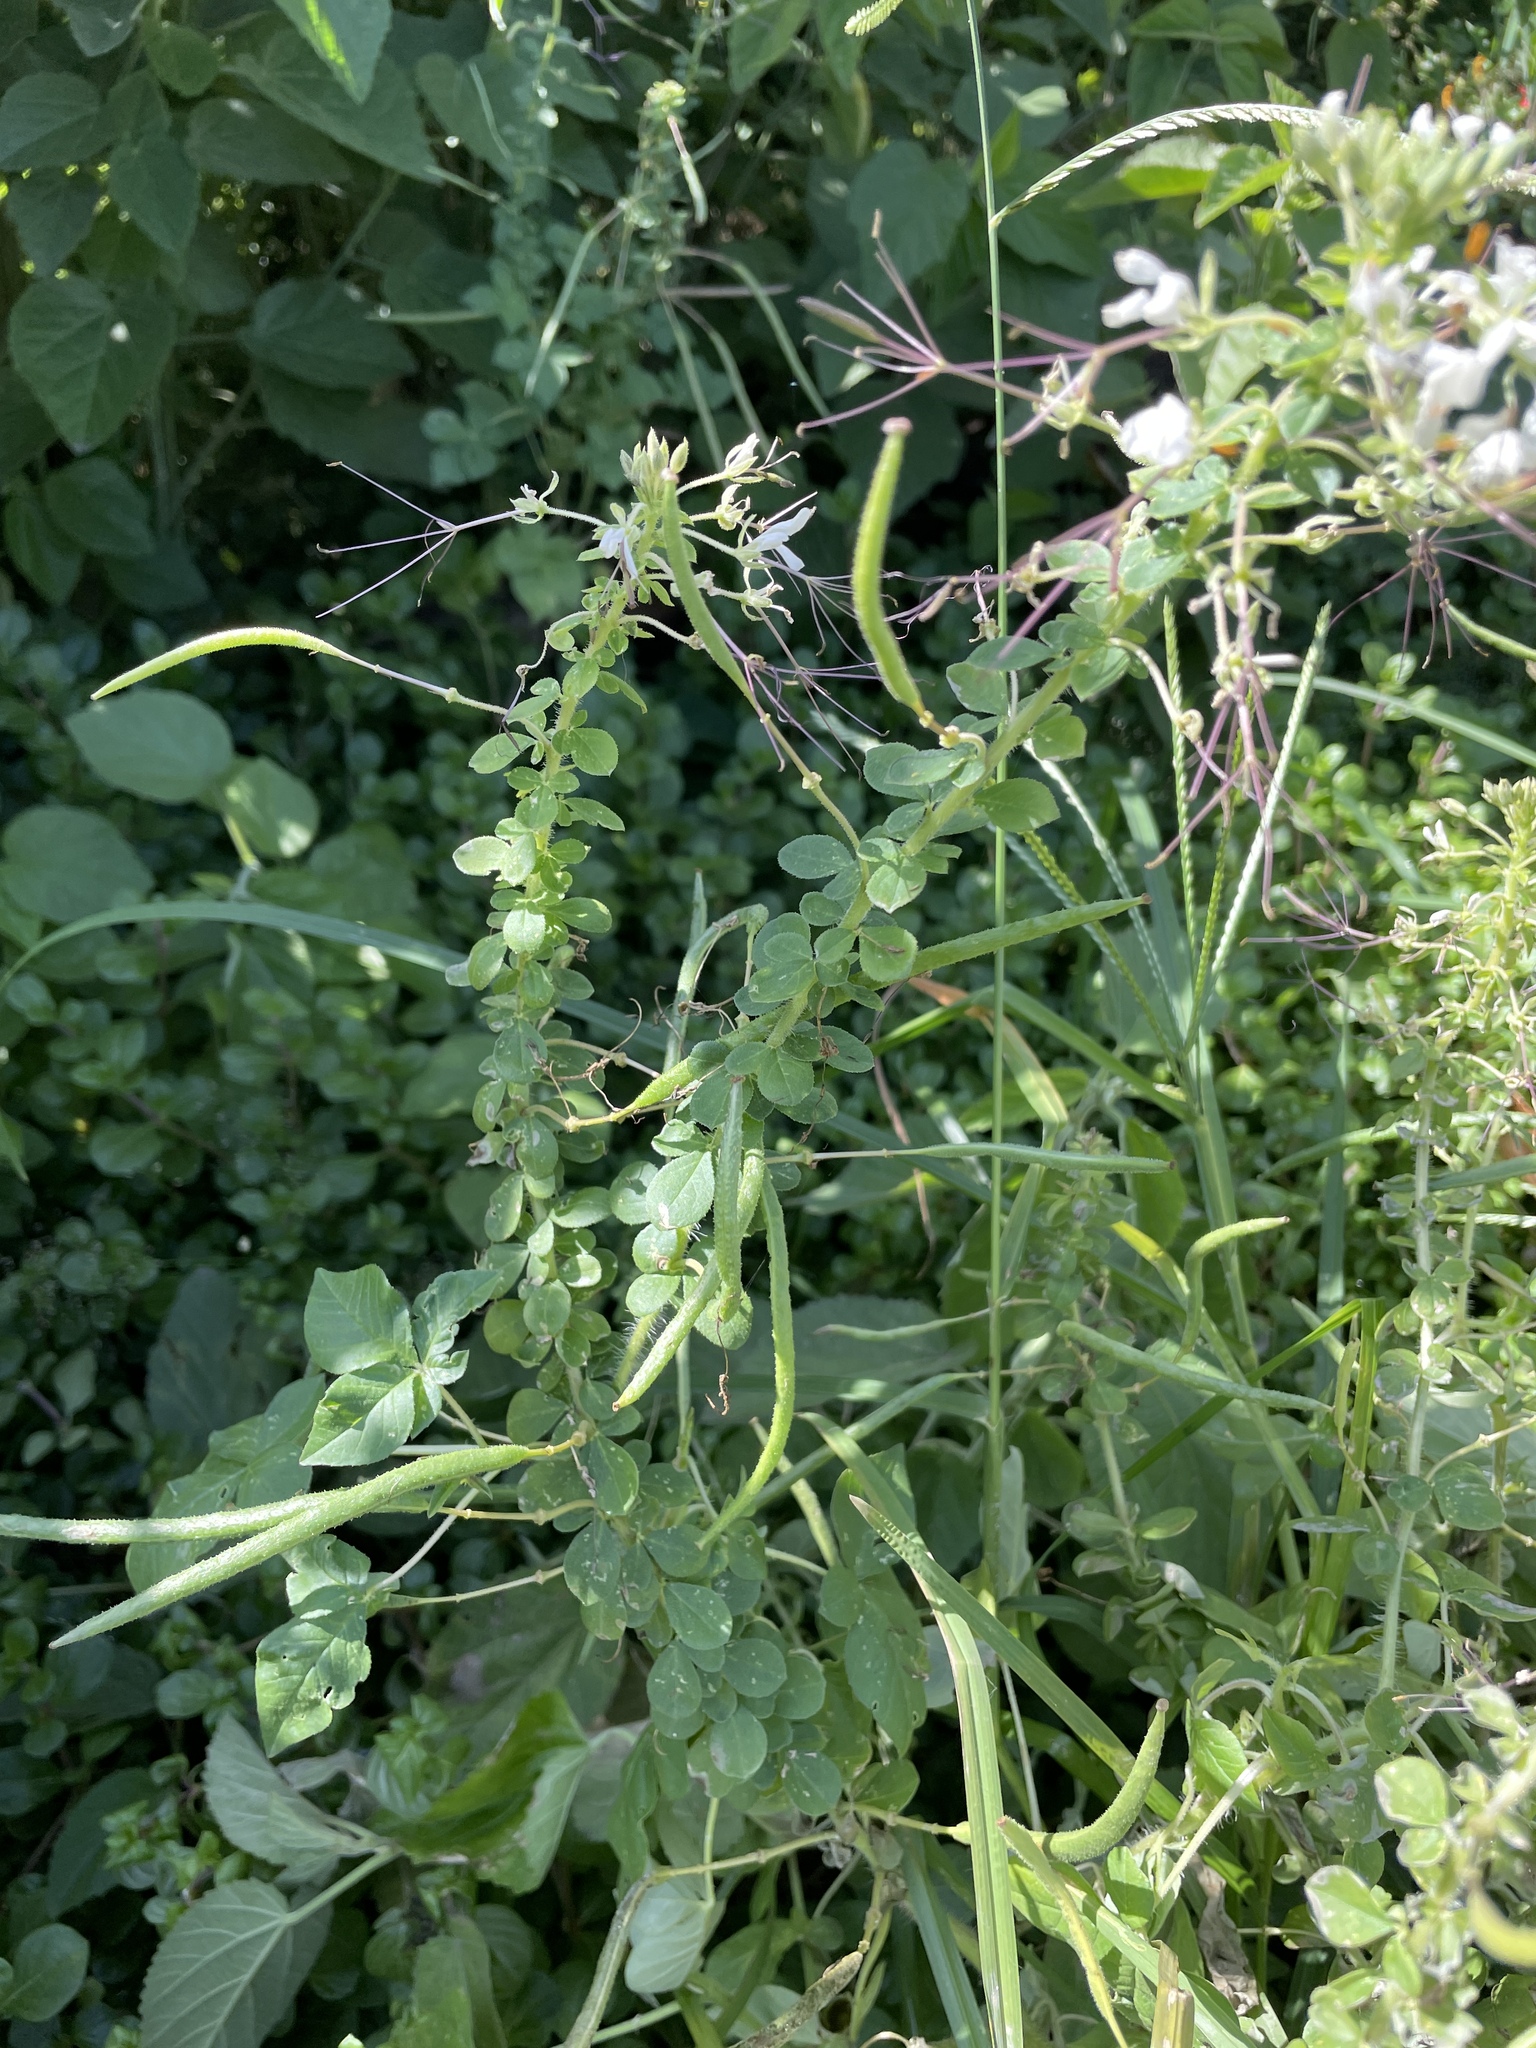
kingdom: Plantae
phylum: Tracheophyta
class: Magnoliopsida
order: Brassicales
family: Cleomaceae
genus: Gynandropsis
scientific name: Gynandropsis gynandra
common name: Spiderwisp
